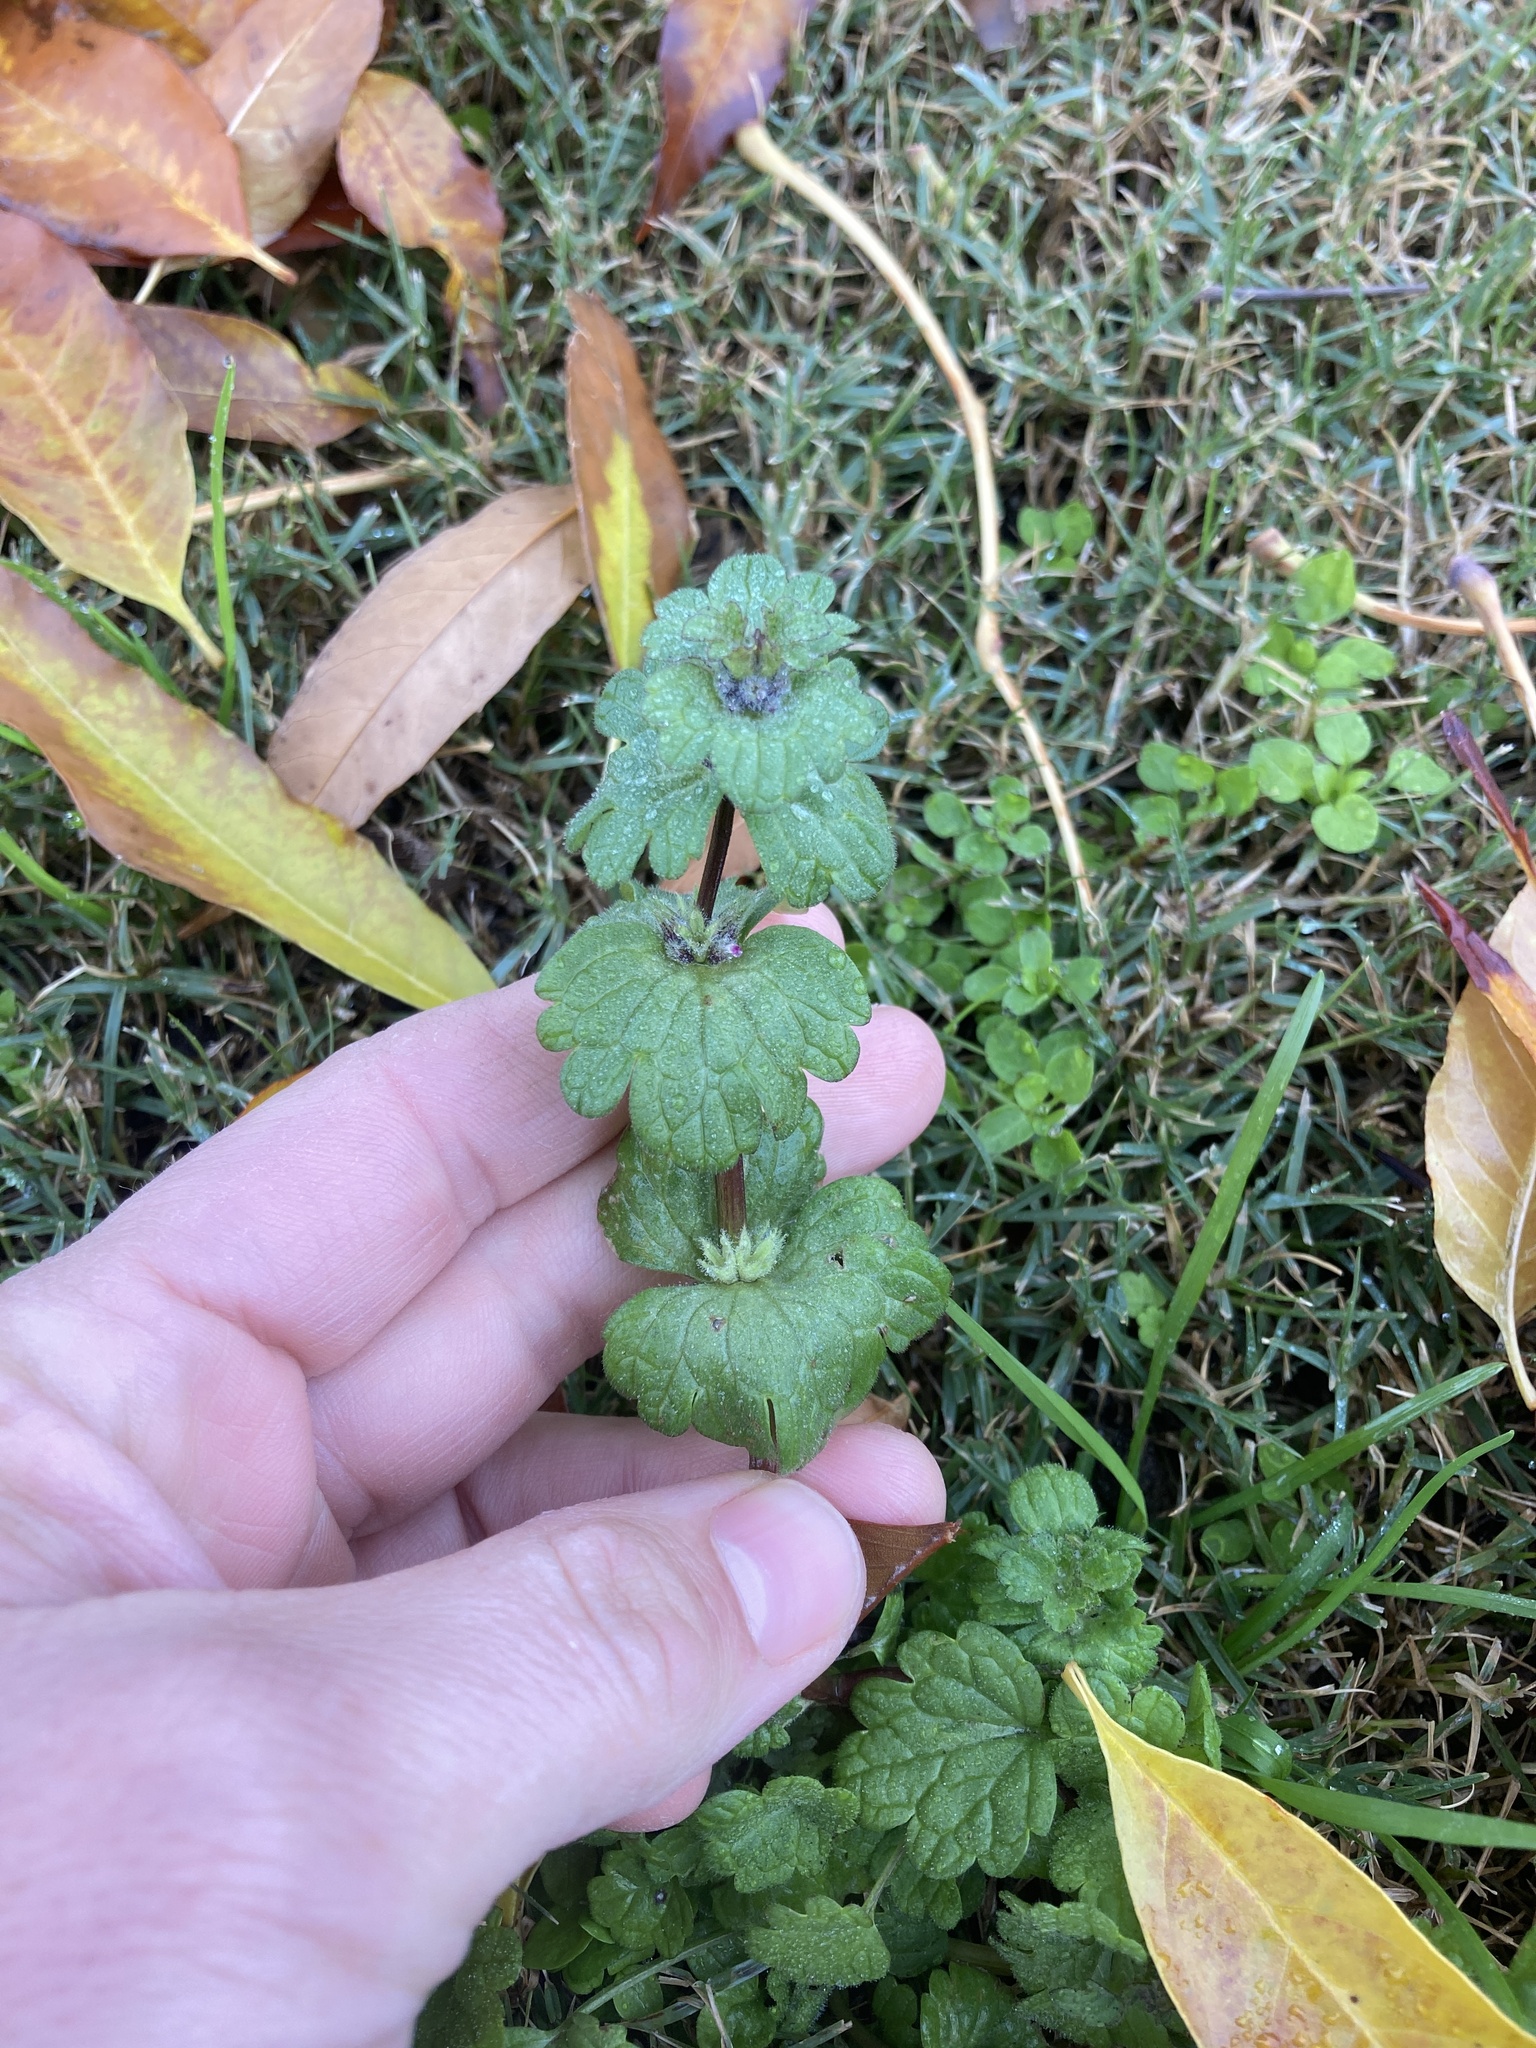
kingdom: Plantae
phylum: Tracheophyta
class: Magnoliopsida
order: Lamiales
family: Lamiaceae
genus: Lamium
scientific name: Lamium amplexicaule
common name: Henbit dead-nettle
